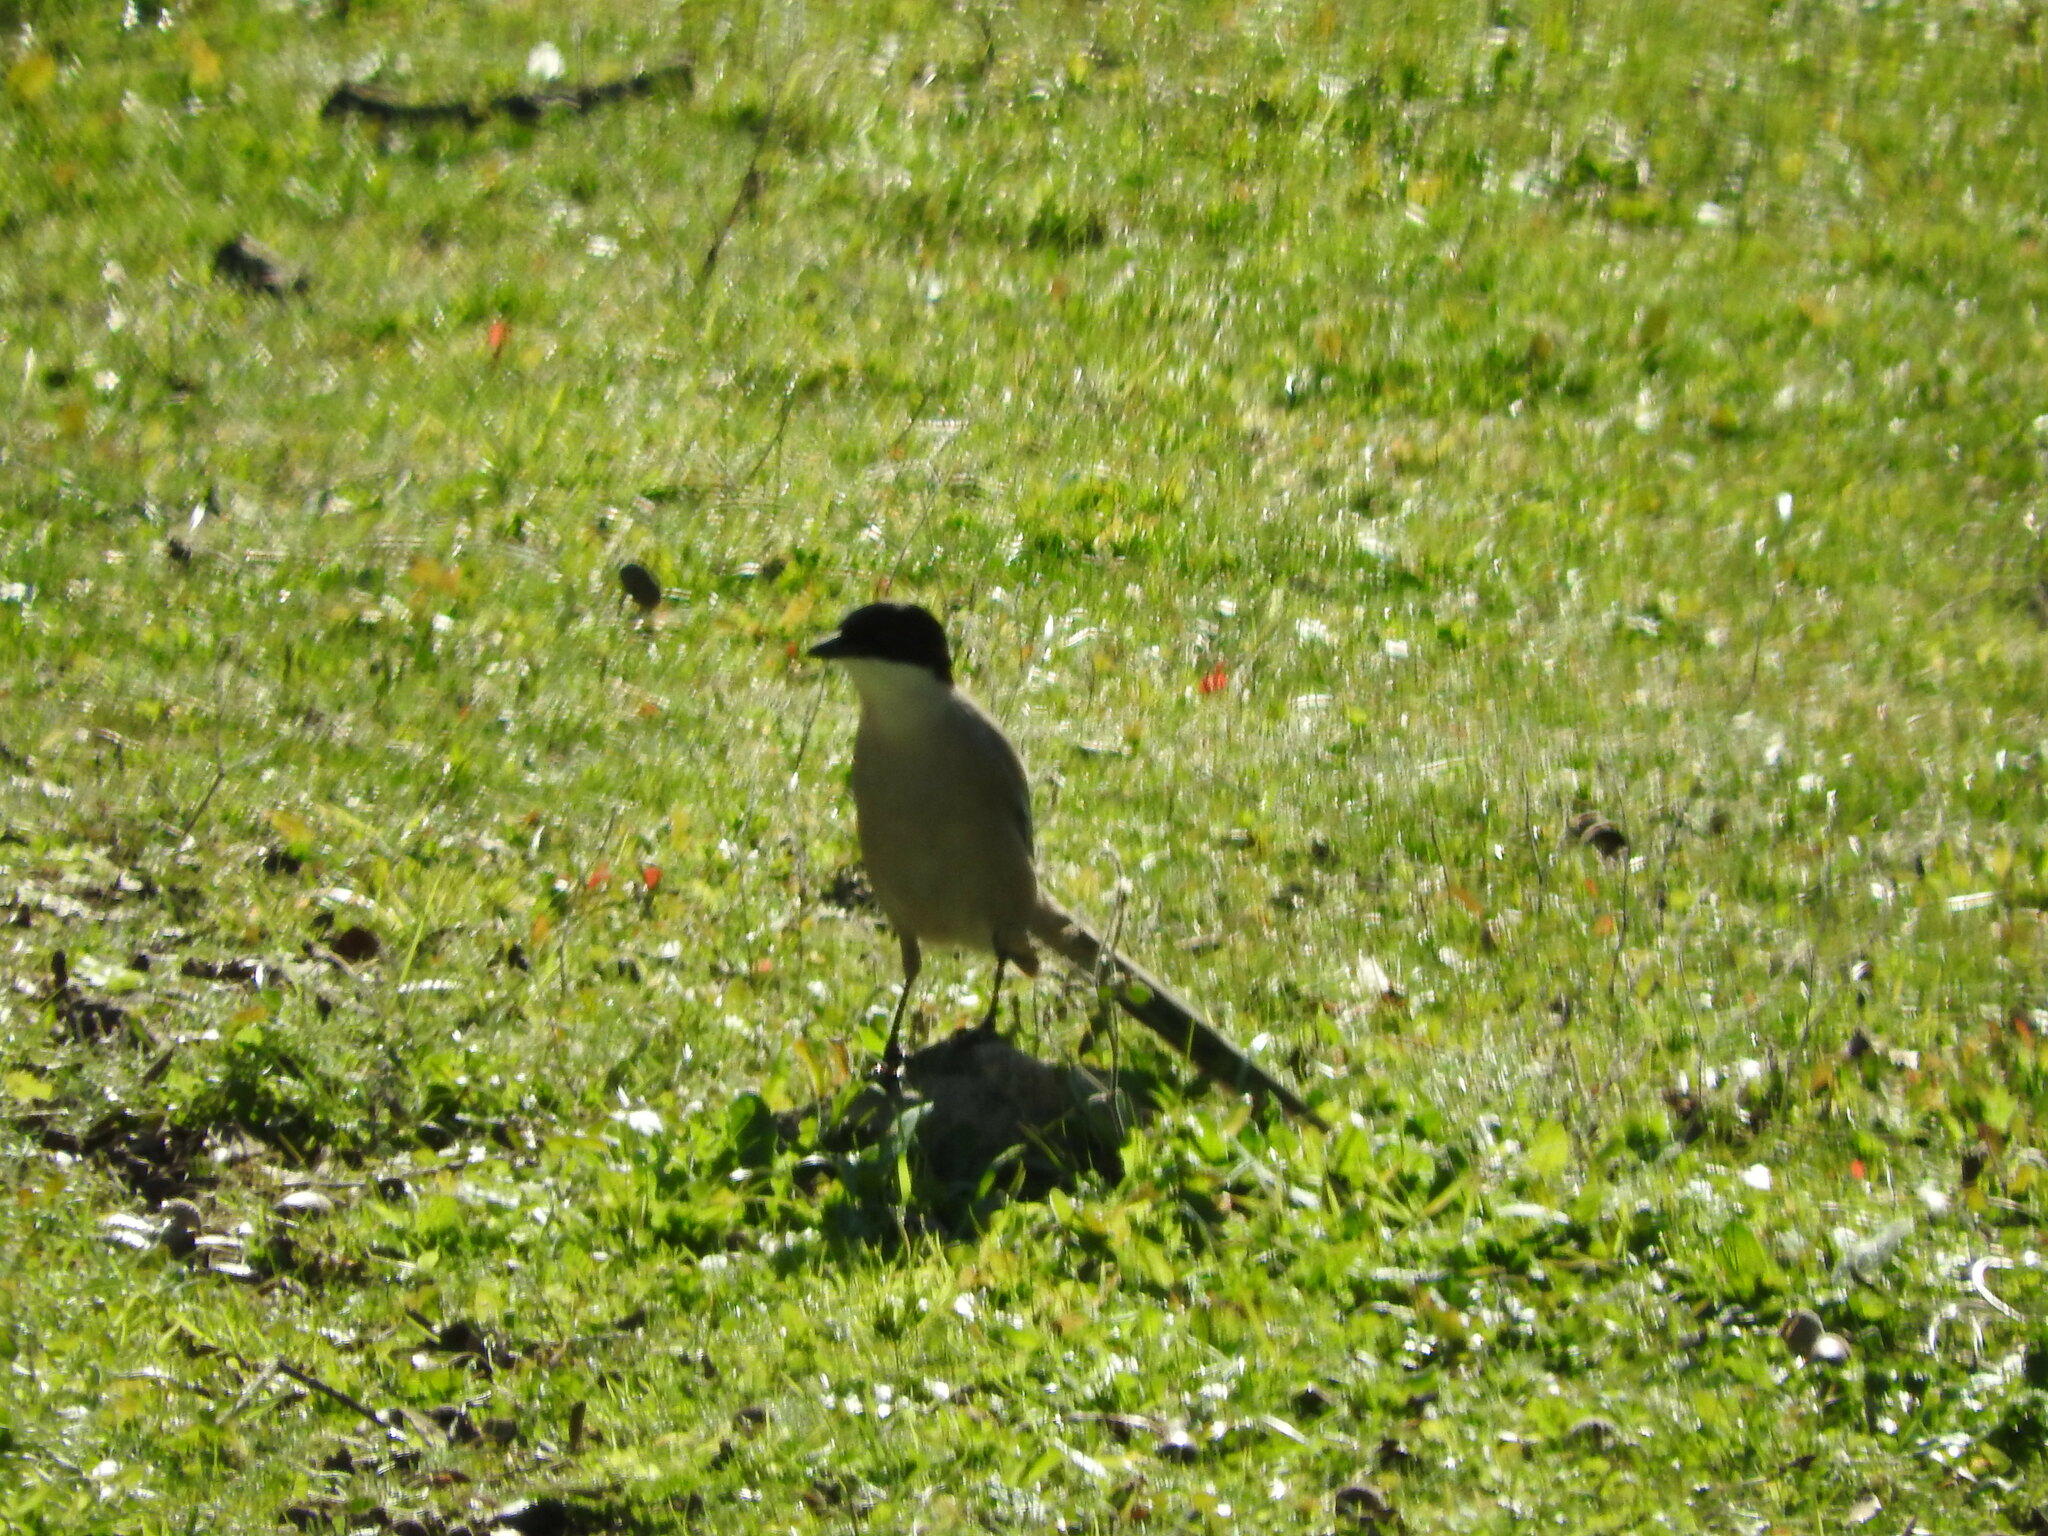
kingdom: Animalia
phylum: Chordata
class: Aves
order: Passeriformes
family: Corvidae
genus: Cyanopica
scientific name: Cyanopica cooki
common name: Iberian magpie
